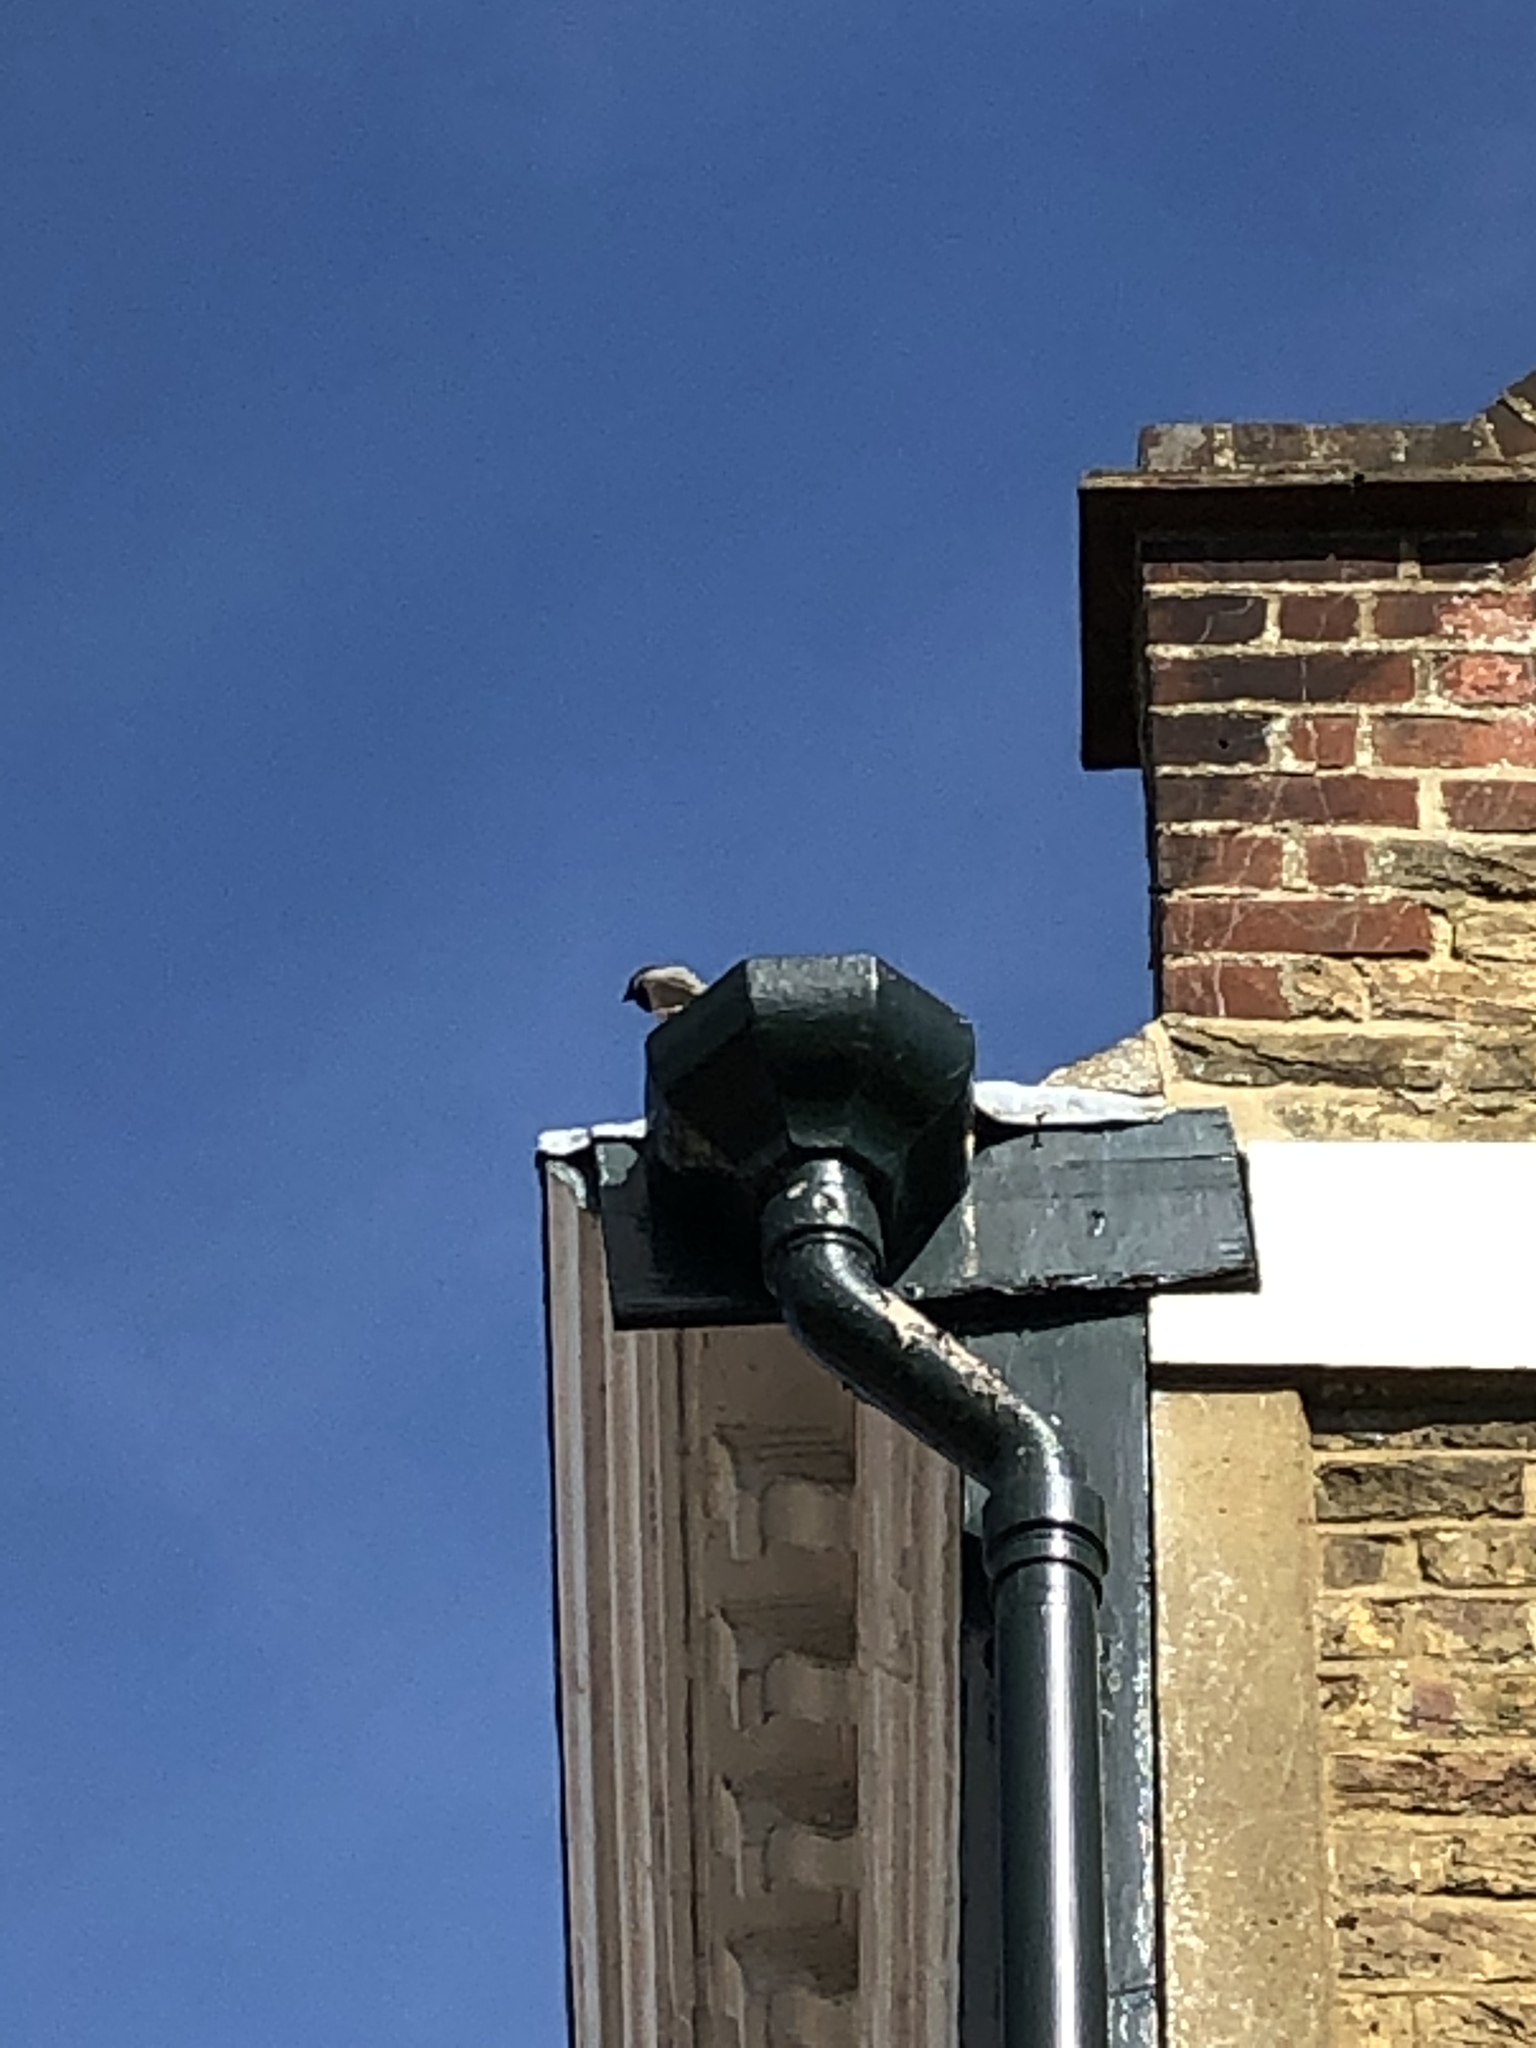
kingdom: Animalia
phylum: Chordata
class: Aves
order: Passeriformes
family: Passeridae
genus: Passer
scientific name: Passer domesticus
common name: House sparrow
